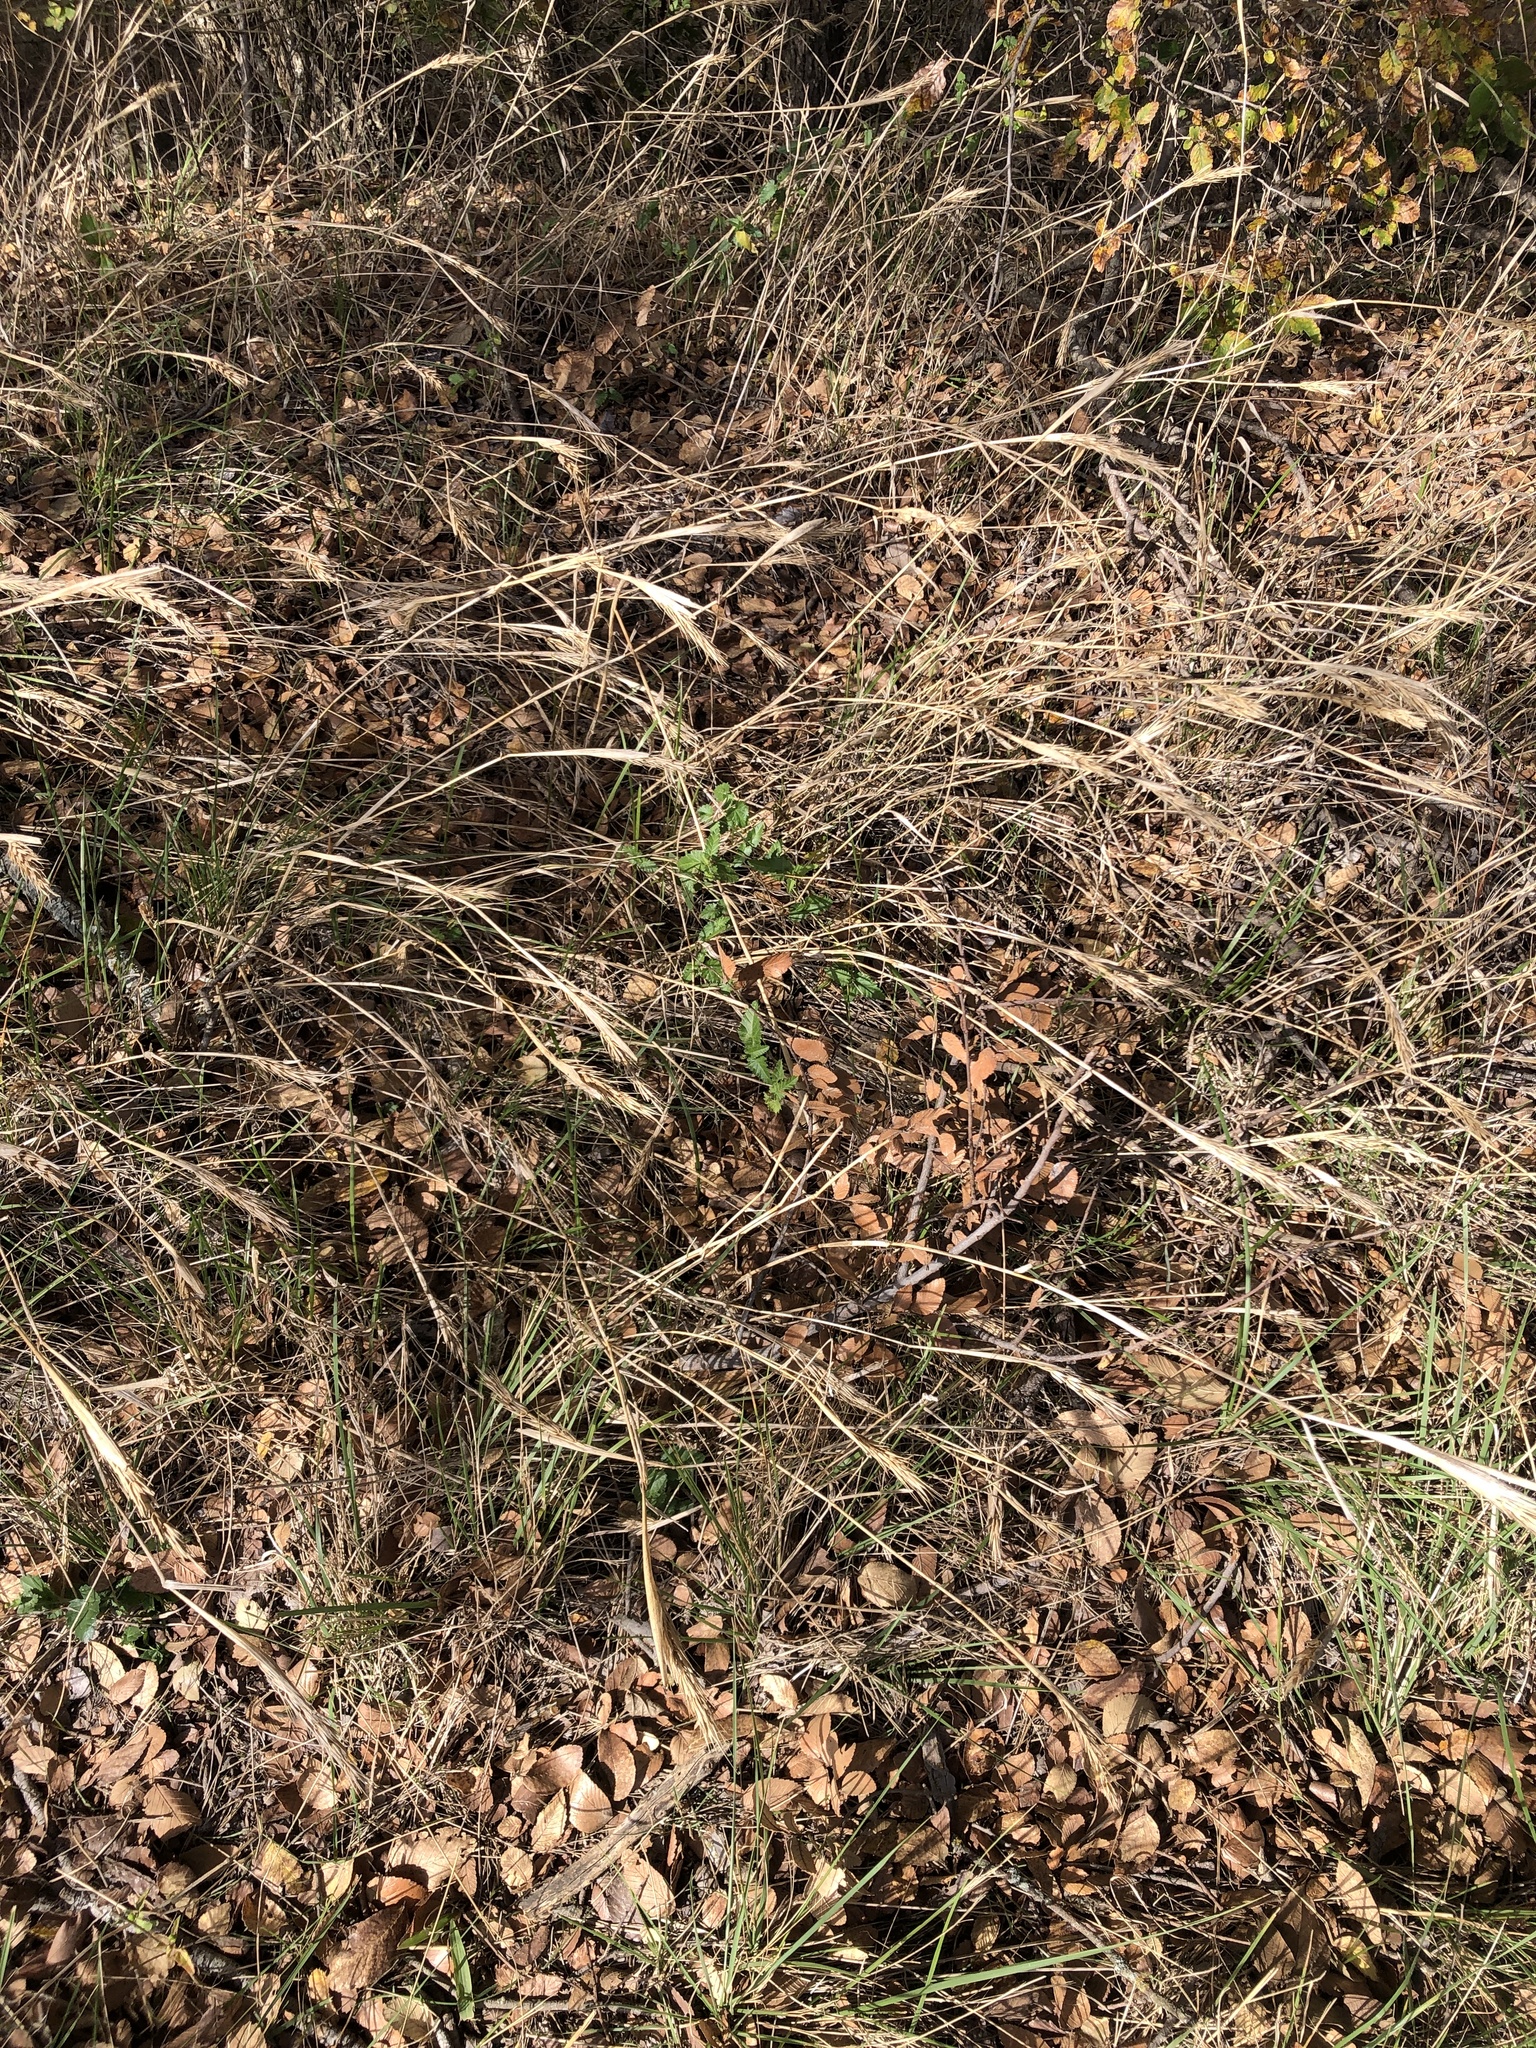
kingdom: Plantae
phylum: Tracheophyta
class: Liliopsida
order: Poales
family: Poaceae
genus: Elymus
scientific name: Elymus virginicus
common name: Common eastern wildrye
